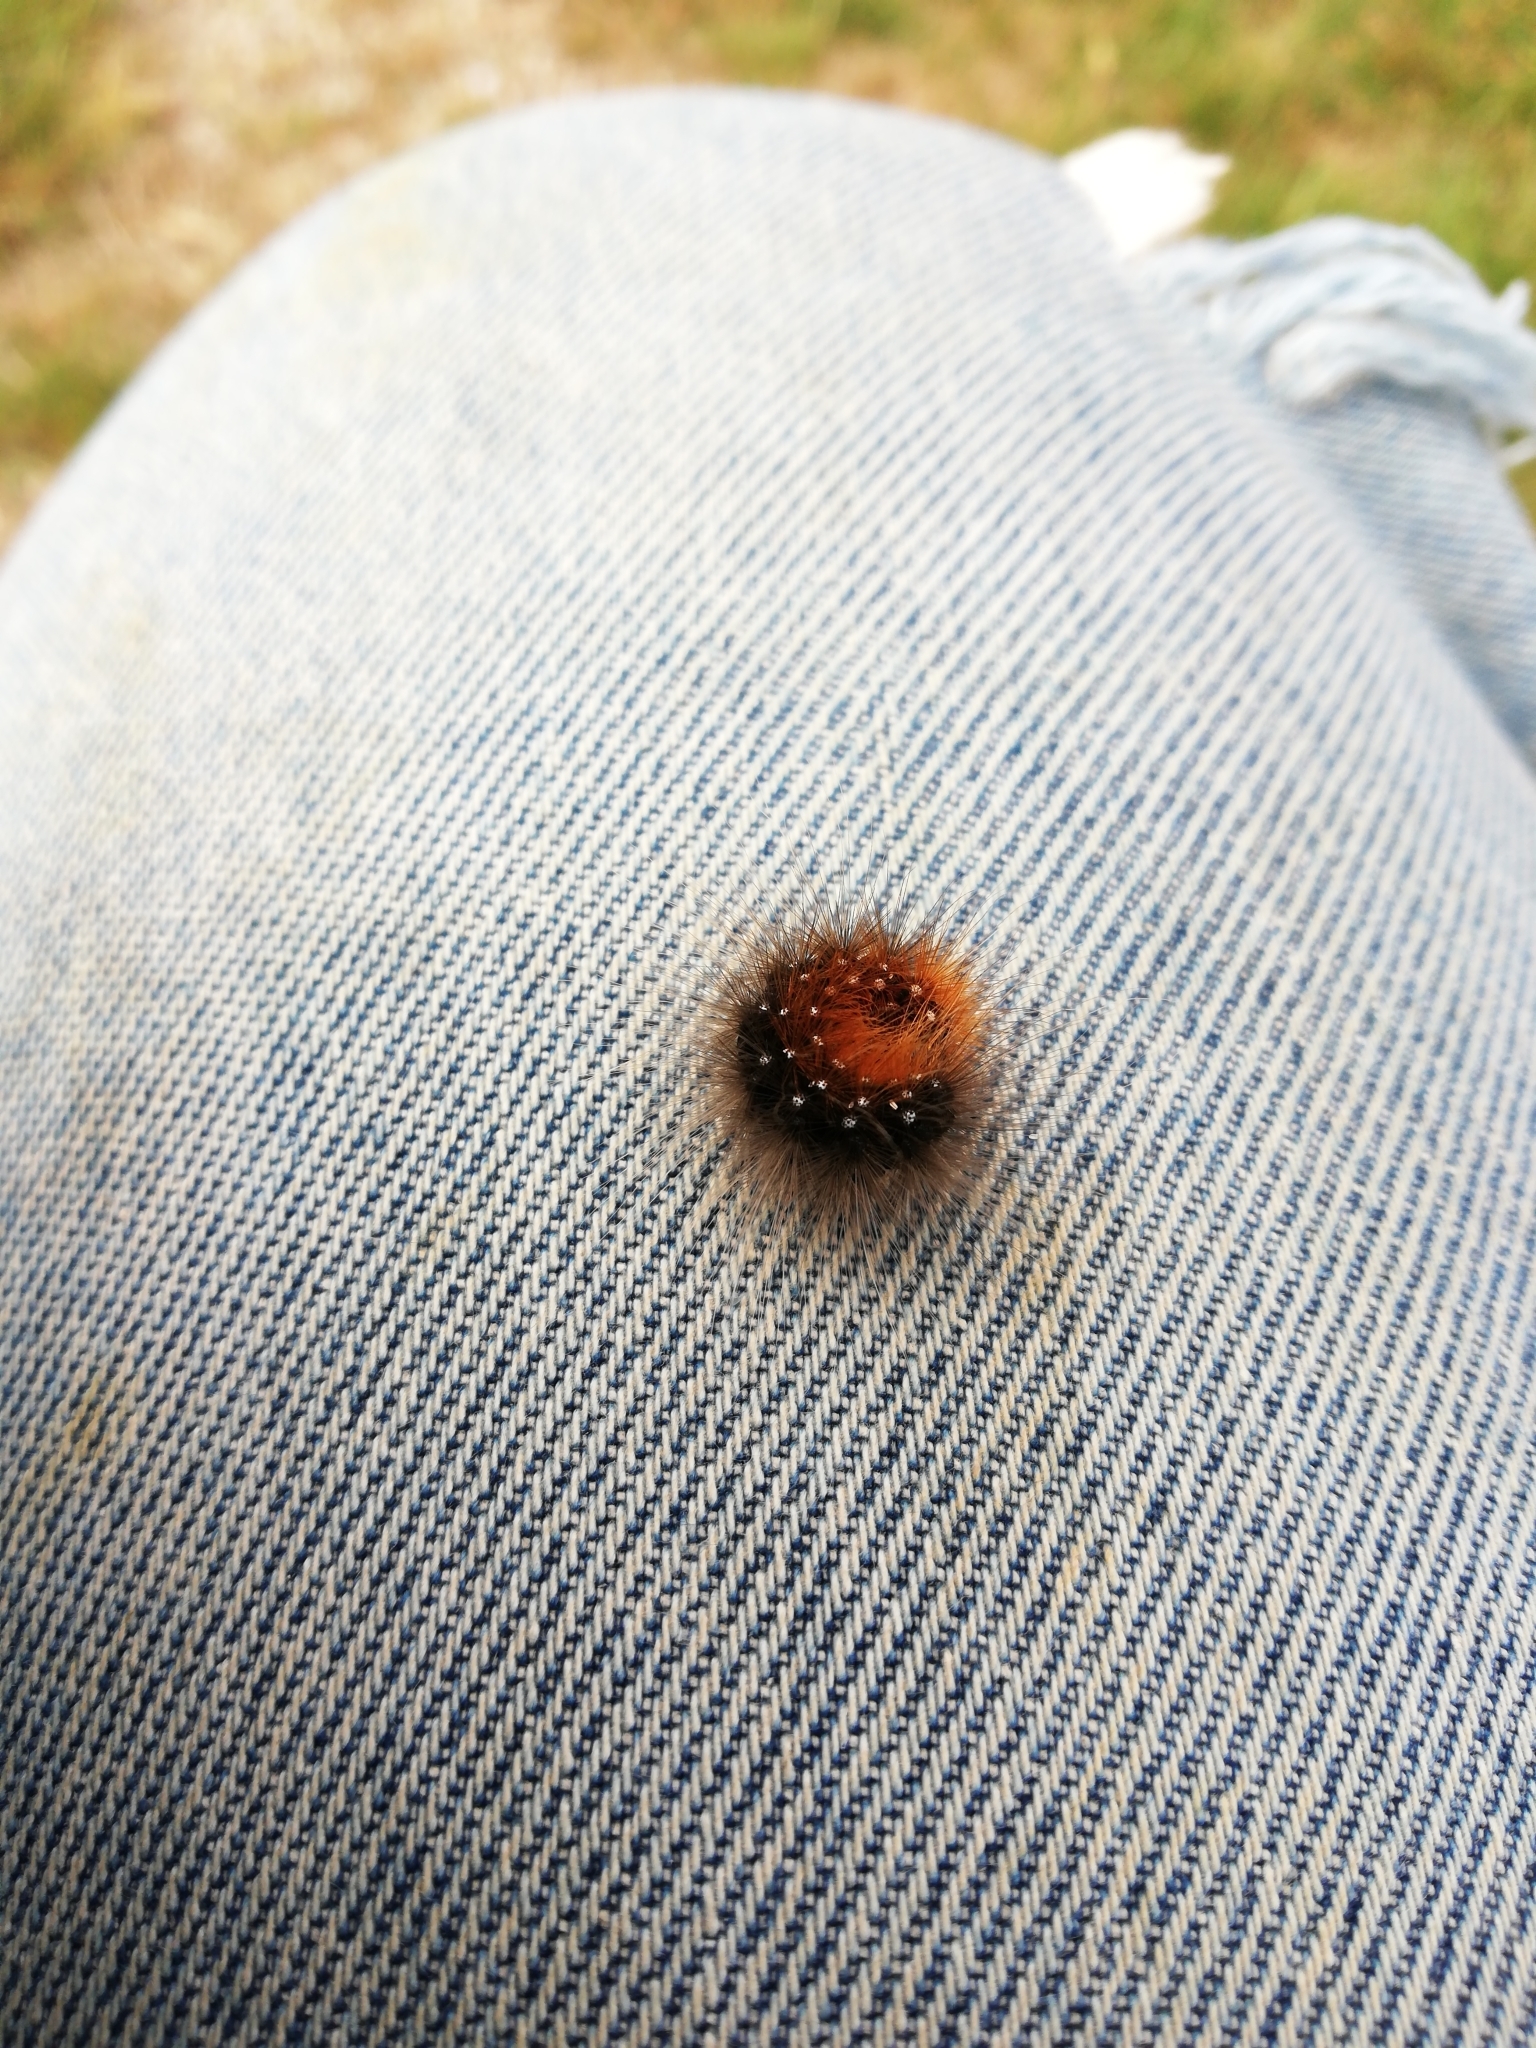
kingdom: Animalia
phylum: Arthropoda
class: Insecta
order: Lepidoptera
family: Erebidae
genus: Arctia
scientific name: Arctia caja
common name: Garden tiger
